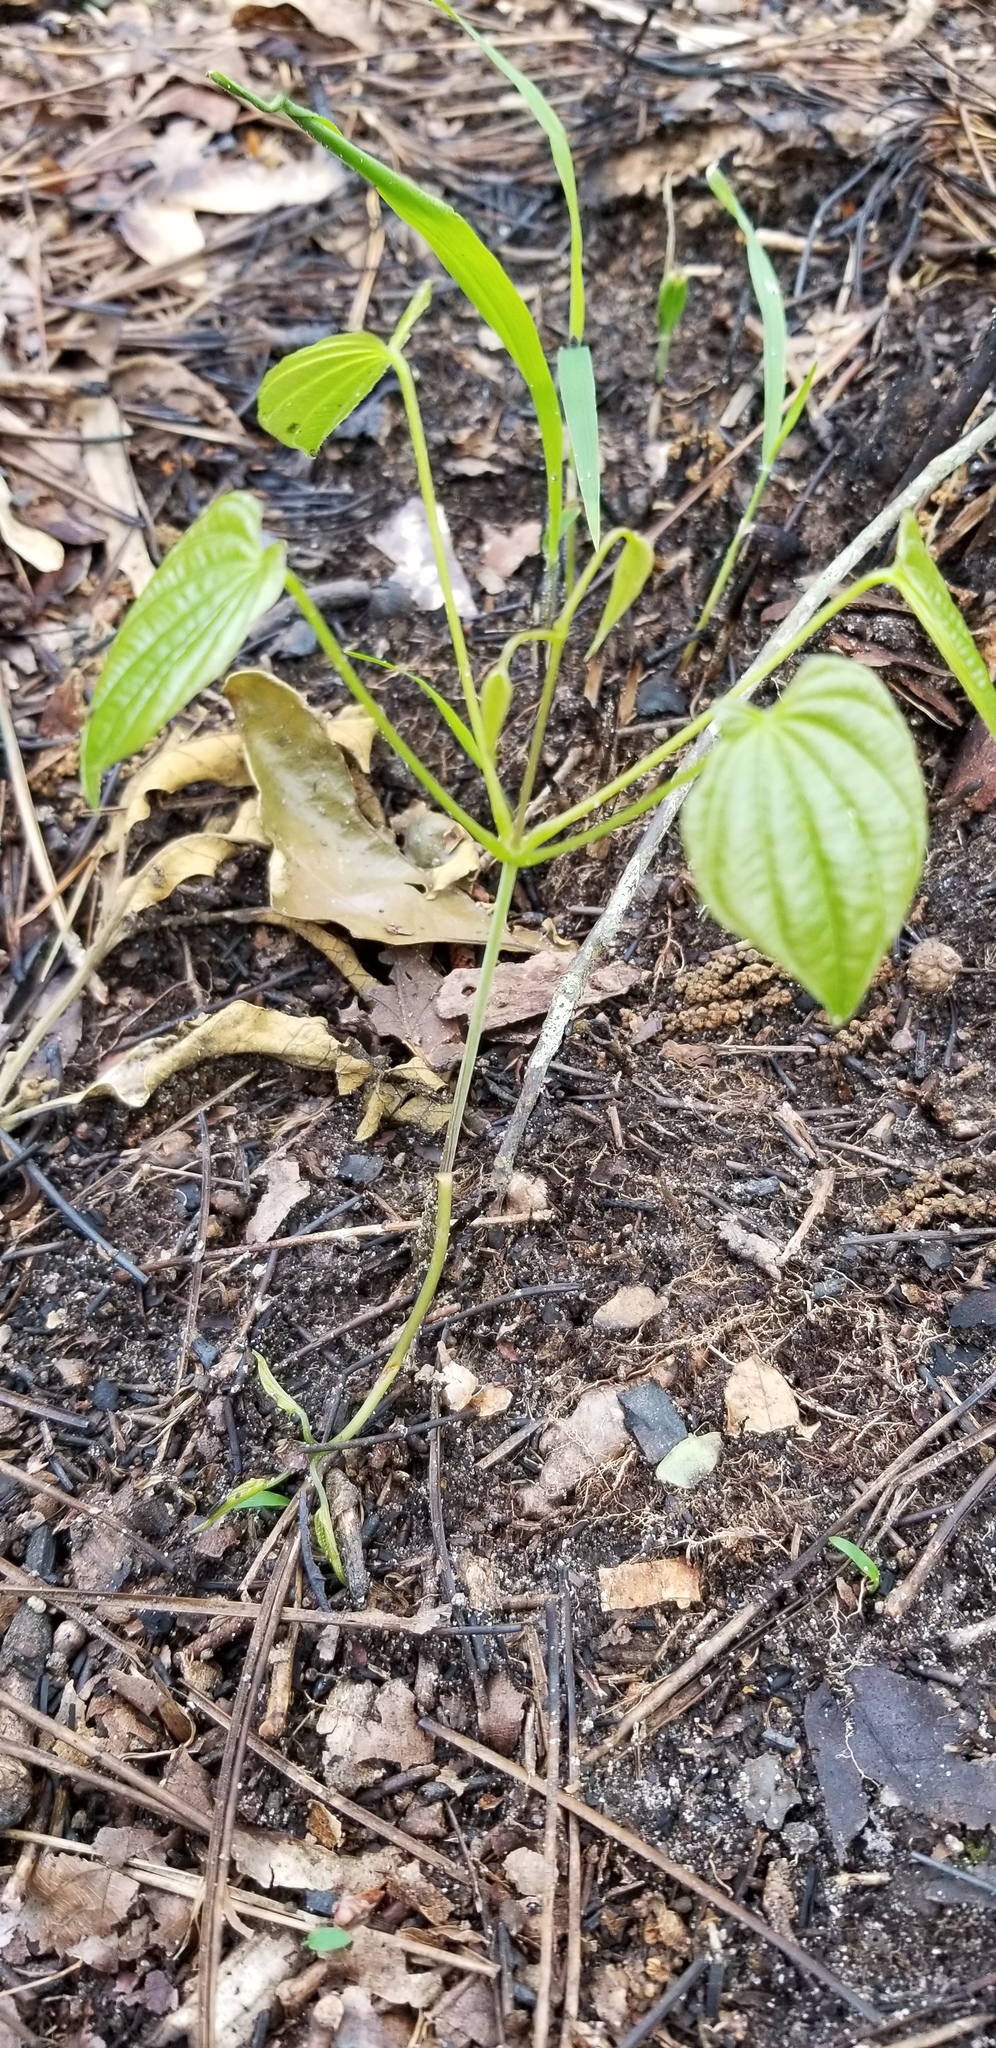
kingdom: Plantae
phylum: Tracheophyta
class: Liliopsida
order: Dioscoreales
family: Dioscoreaceae
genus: Dioscorea
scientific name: Dioscorea quaternata
